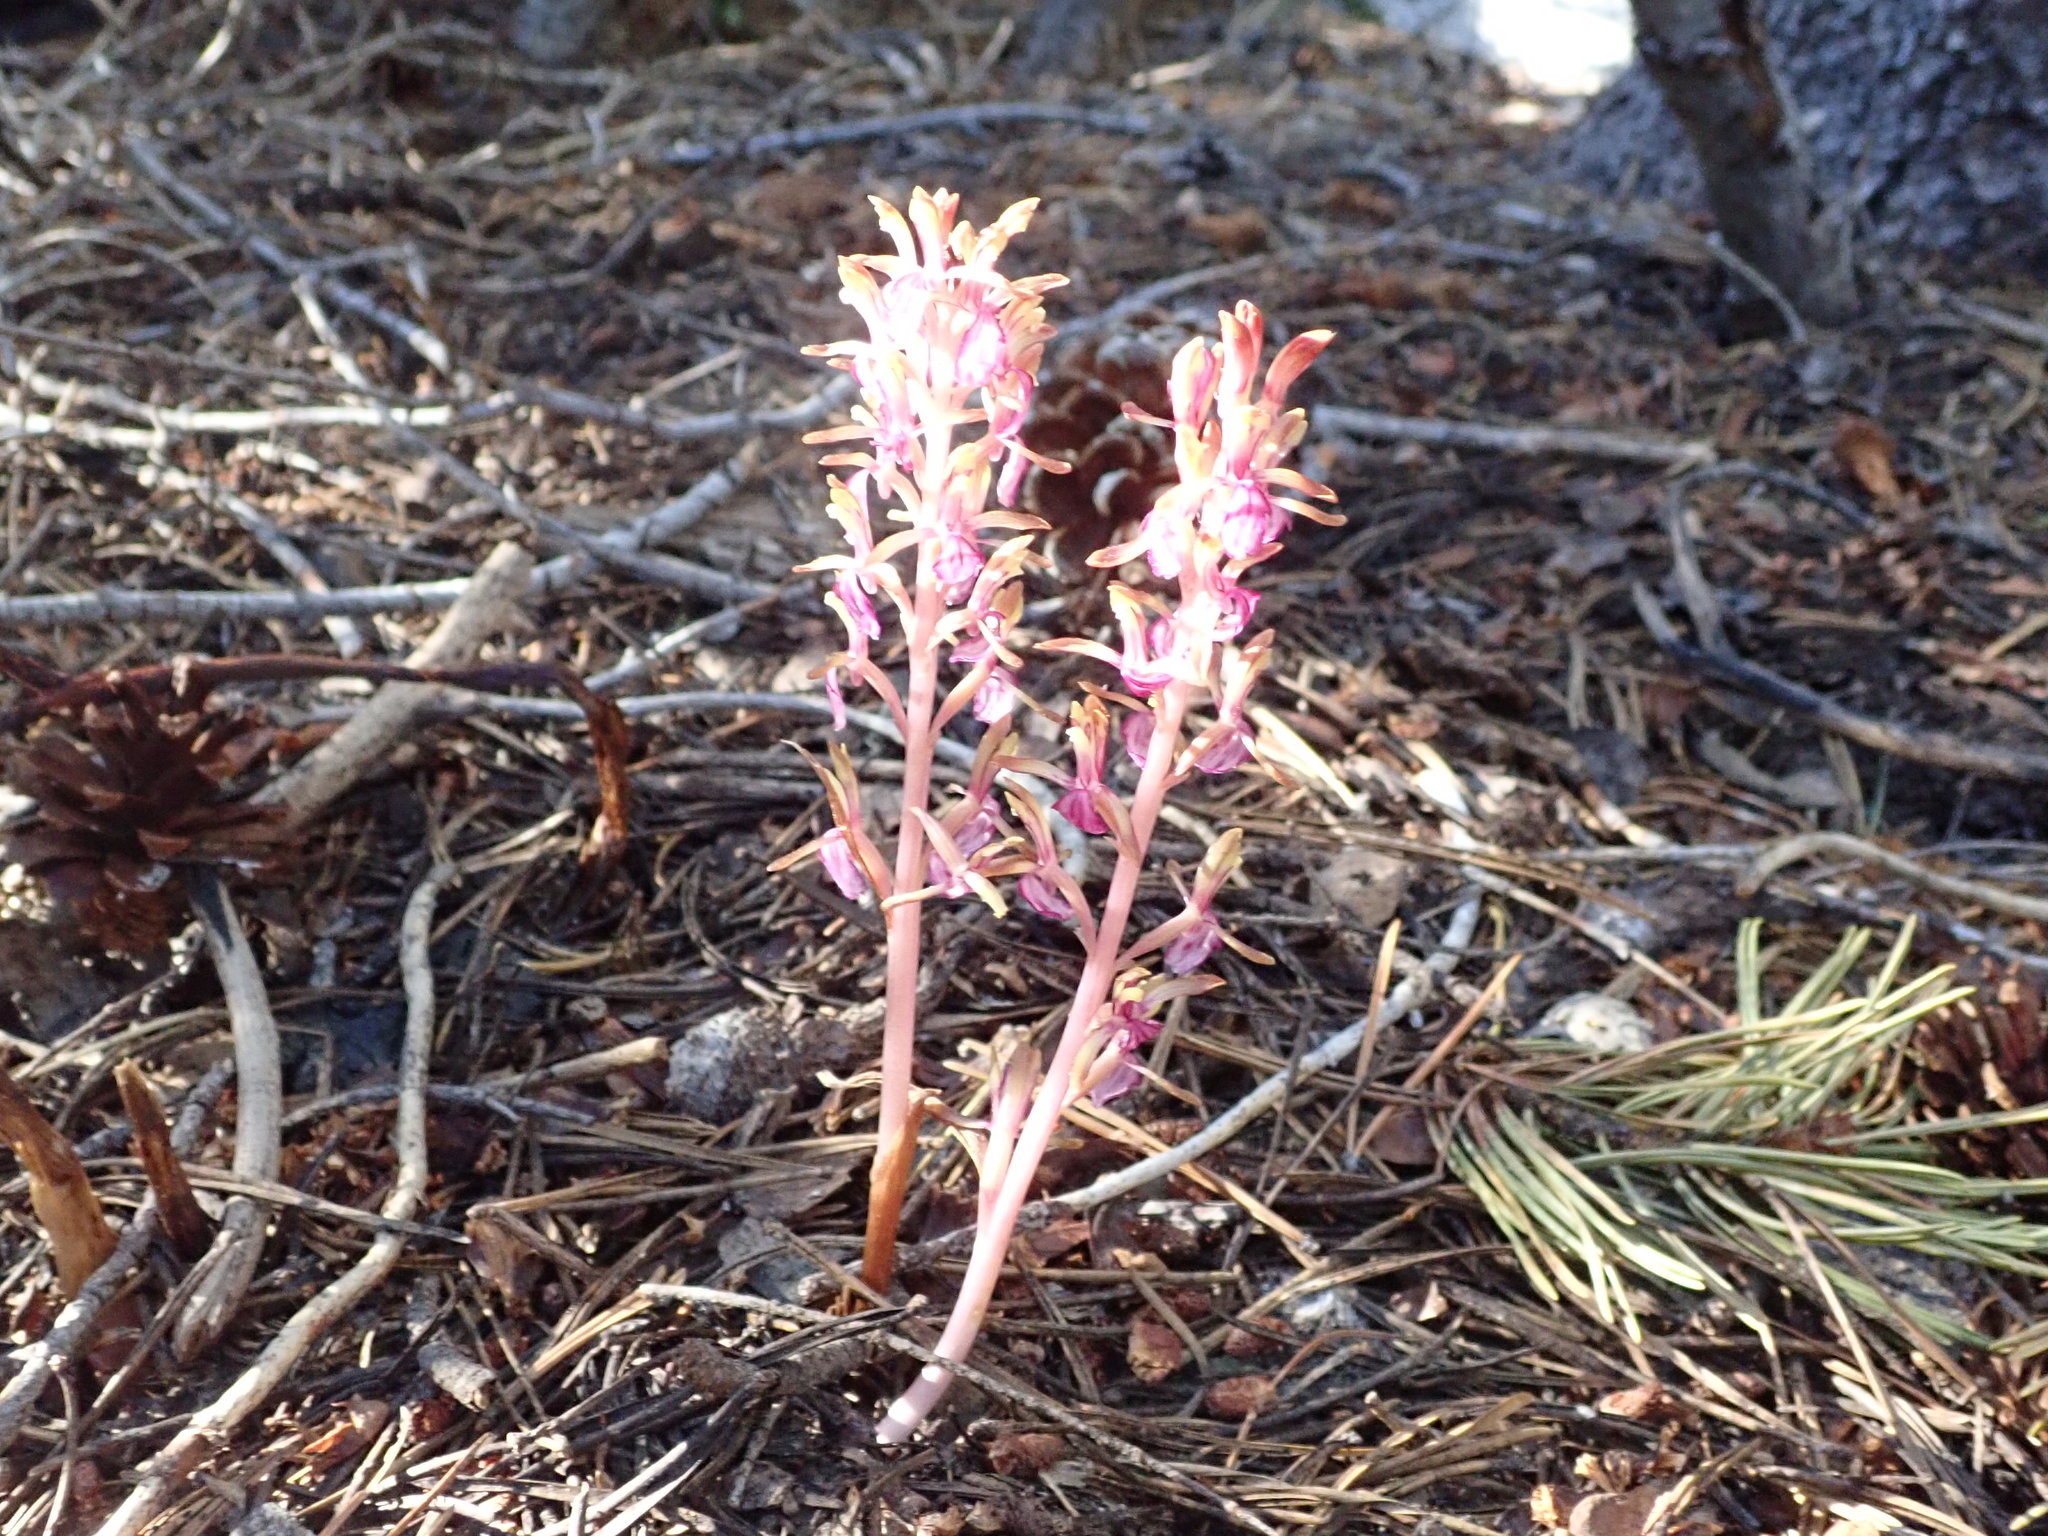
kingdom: Plantae
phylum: Tracheophyta
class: Liliopsida
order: Asparagales
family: Orchidaceae
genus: Corallorhiza
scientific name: Corallorhiza mertensiana
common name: Pacific coralroot
